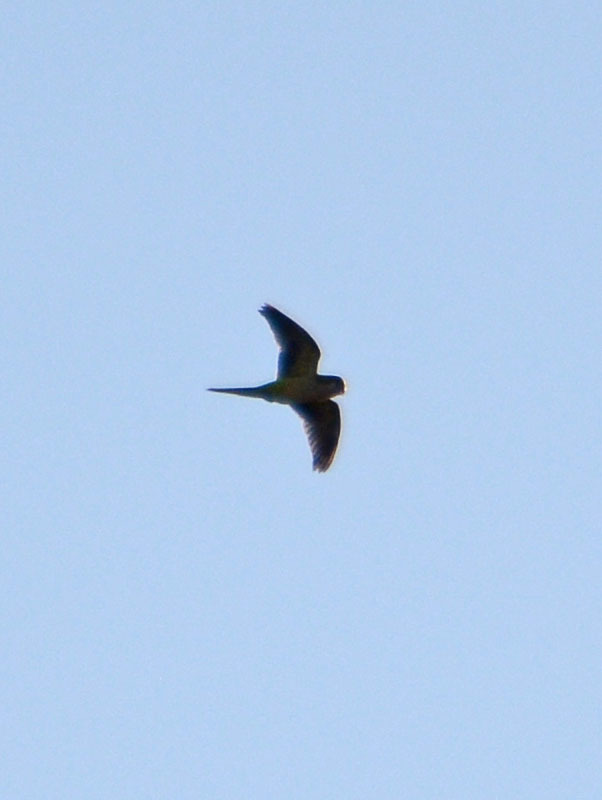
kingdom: Animalia
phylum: Chordata
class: Aves
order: Psittaciformes
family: Psittacidae
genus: Myiopsitta
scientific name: Myiopsitta monachus
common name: Monk parakeet
